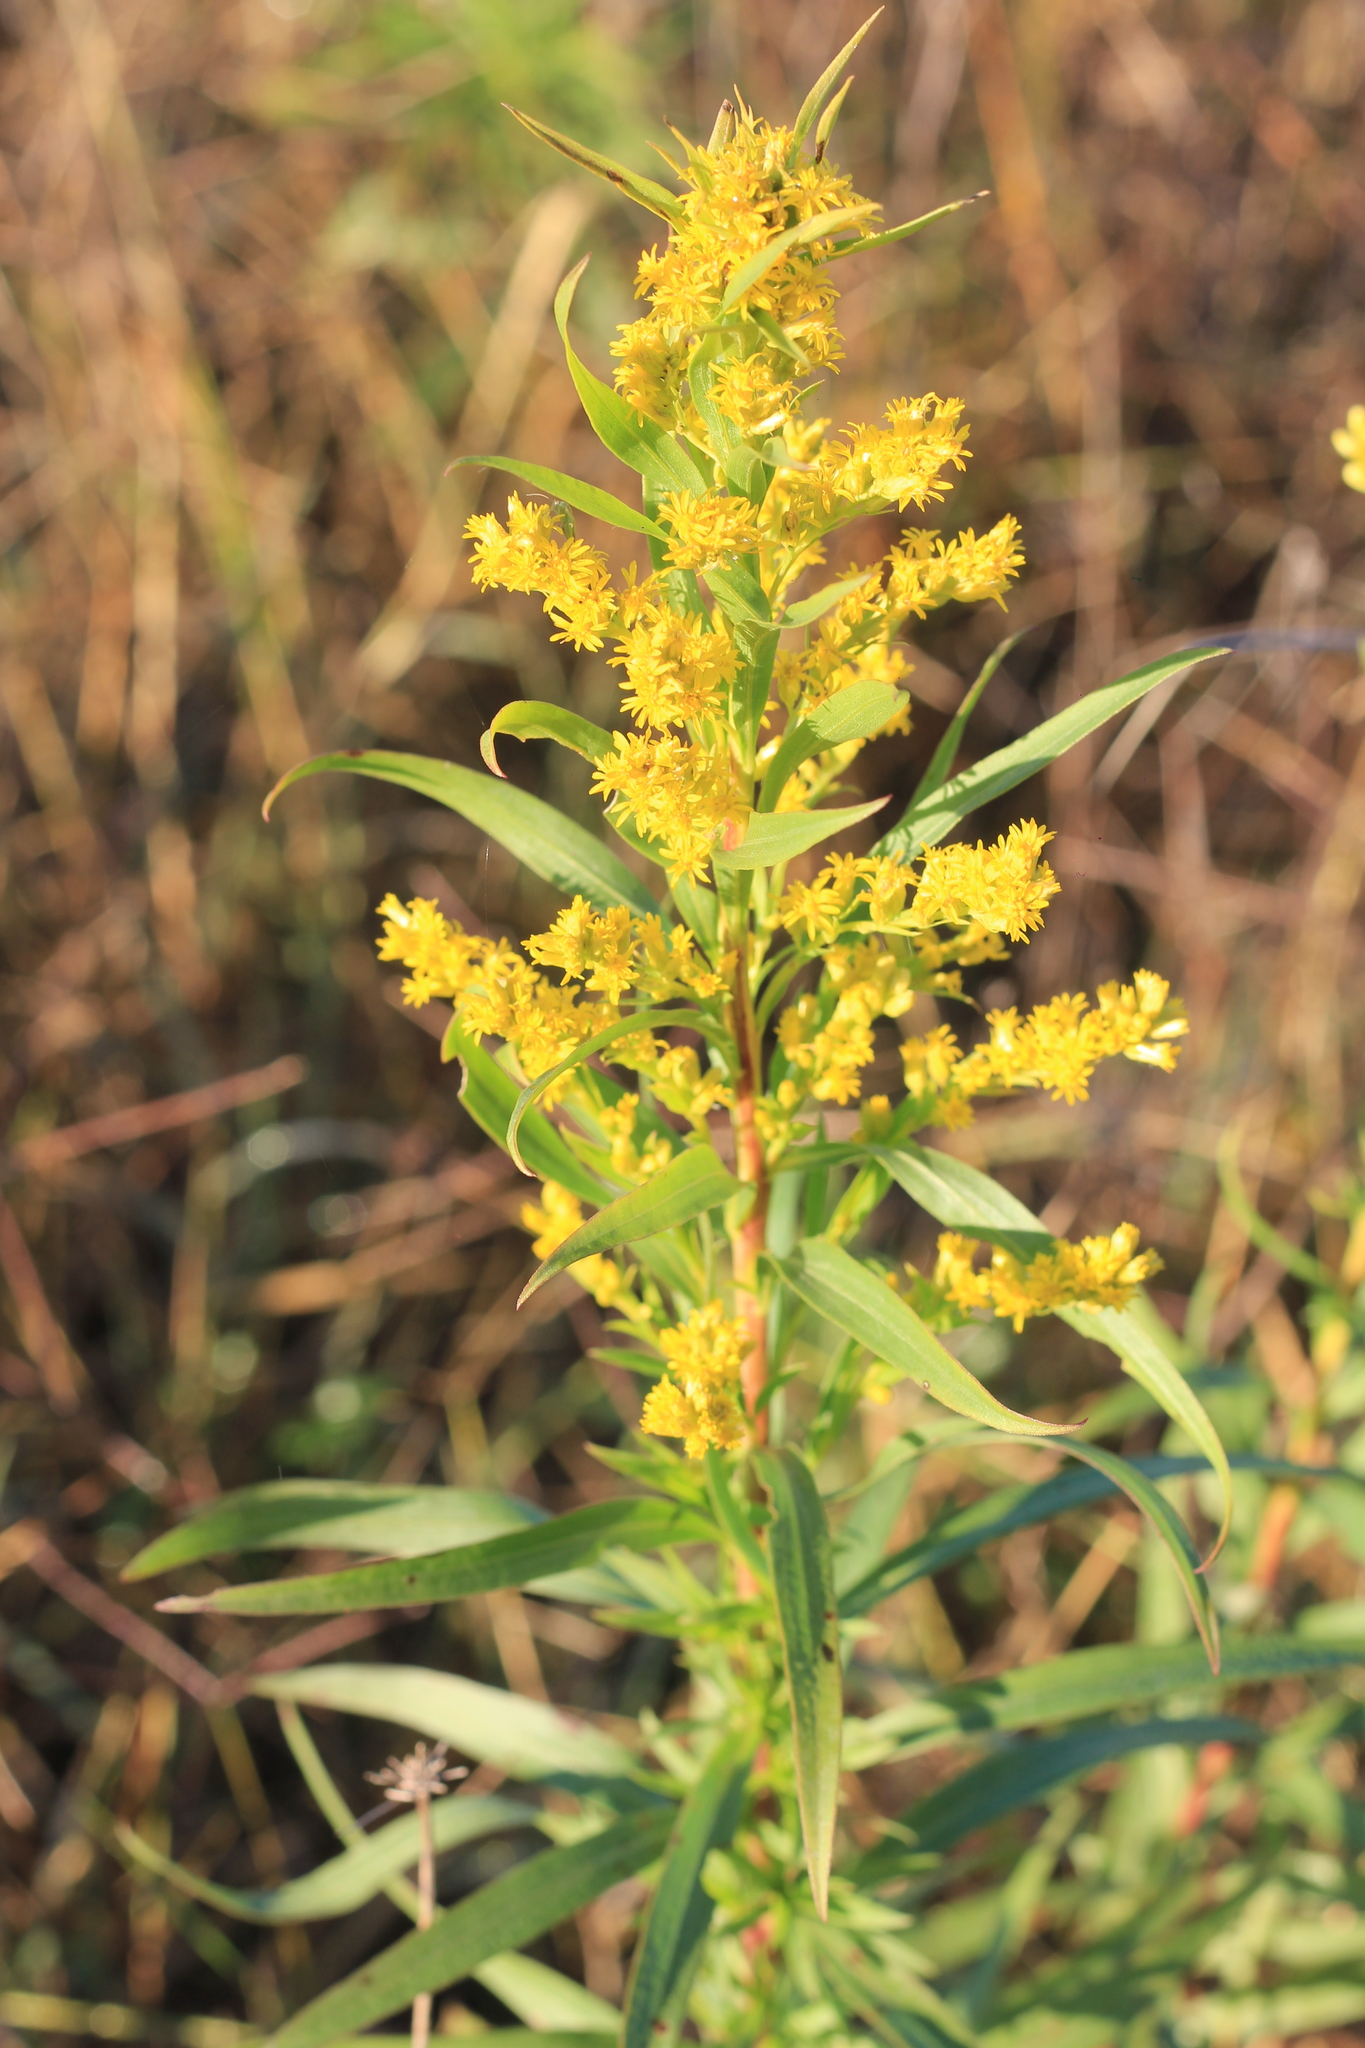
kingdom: Plantae
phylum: Tracheophyta
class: Magnoliopsida
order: Asterales
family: Asteraceae
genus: Solidago
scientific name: Solidago chilensis
